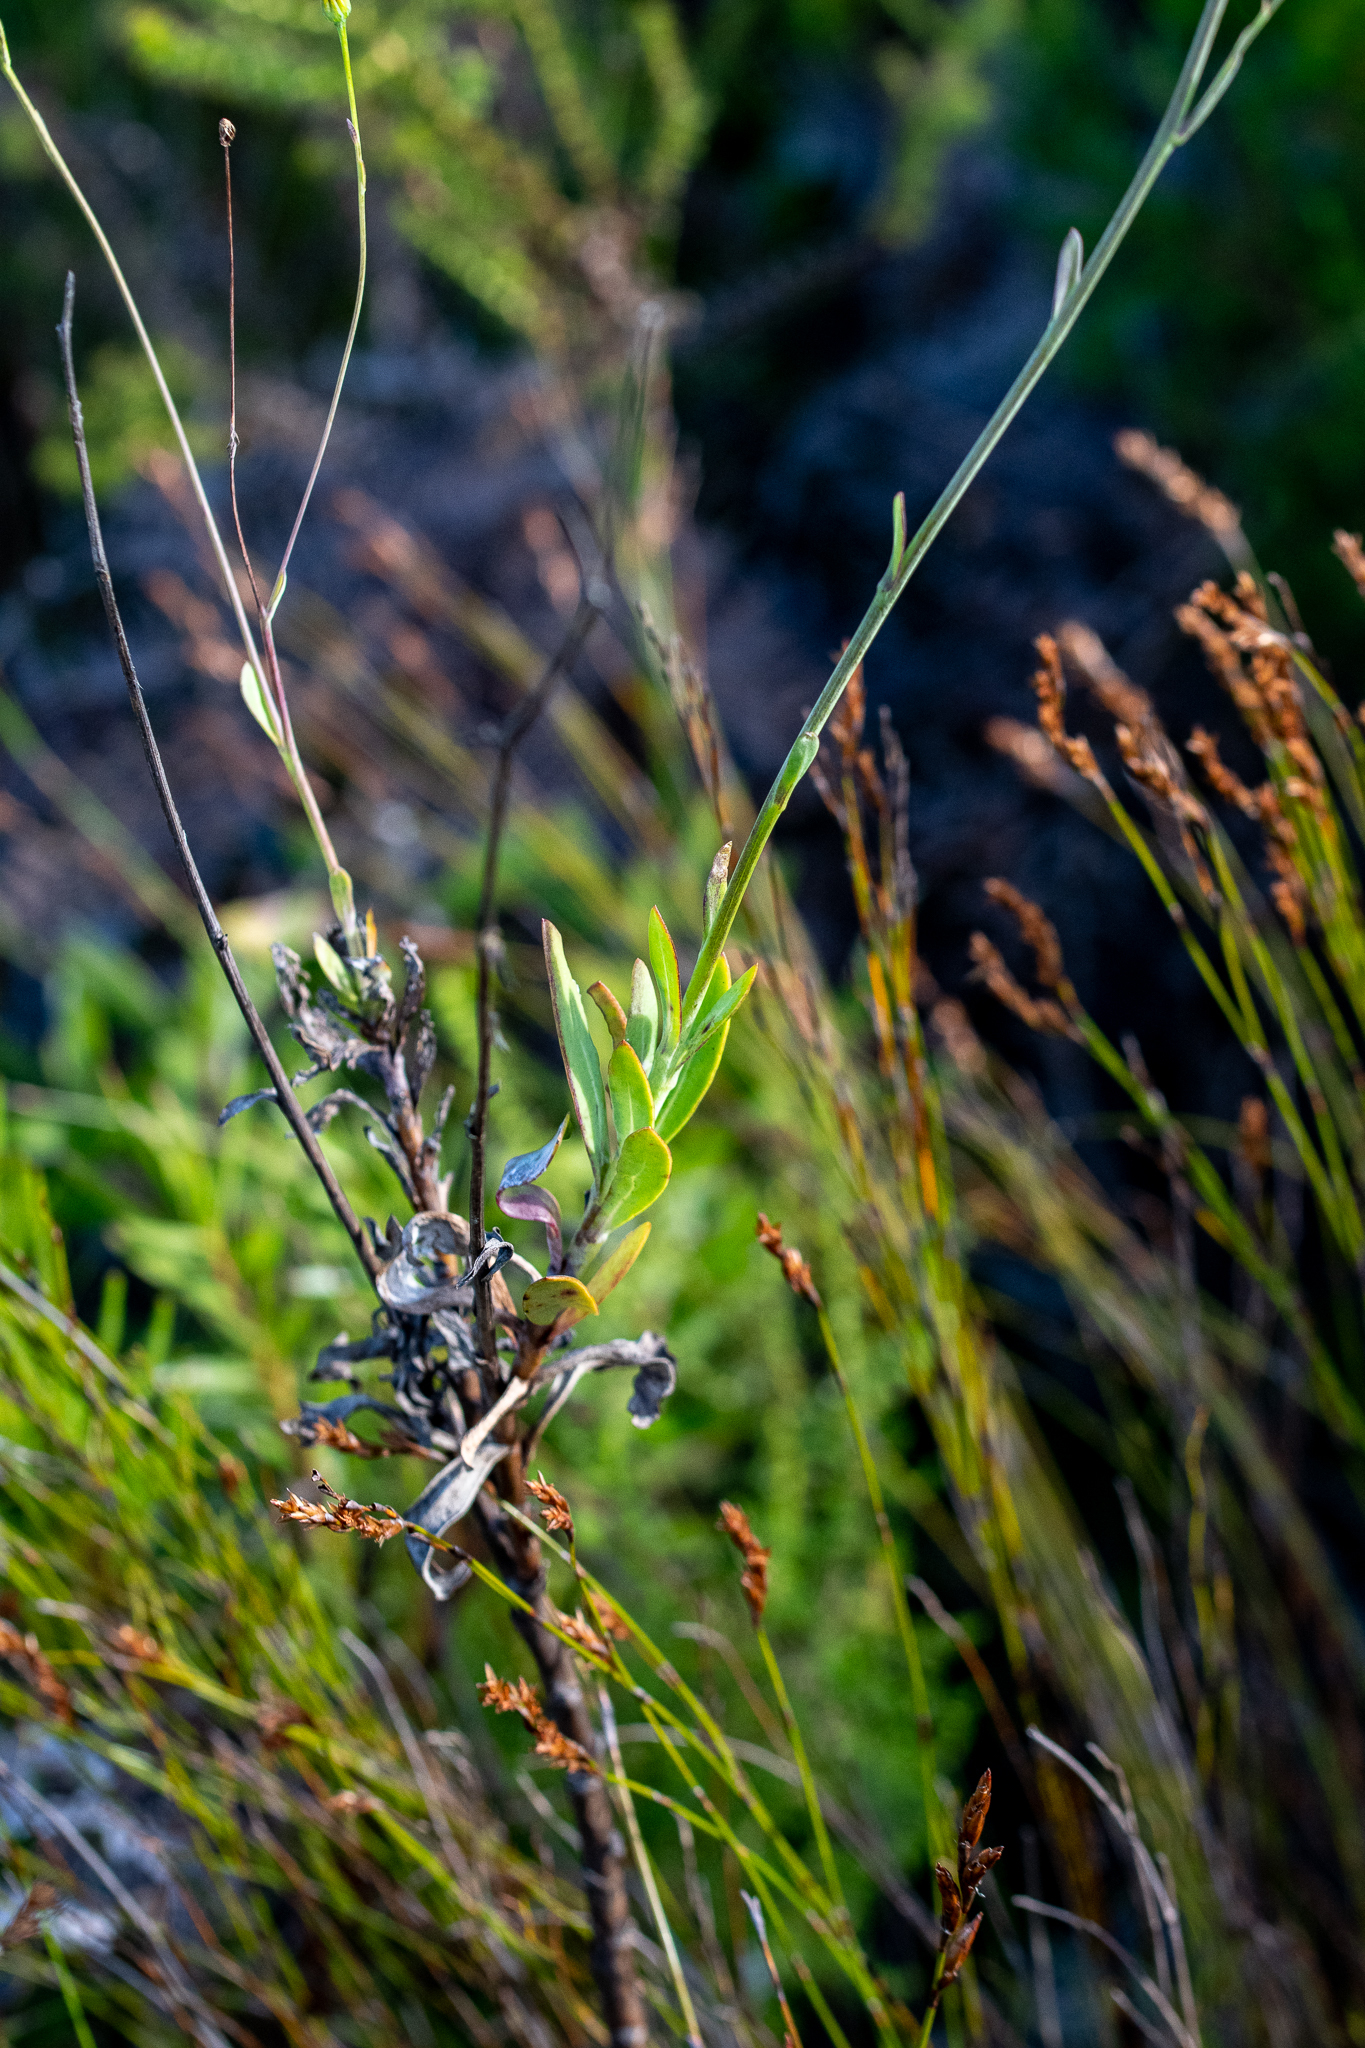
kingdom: Plantae
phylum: Tracheophyta
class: Magnoliopsida
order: Asterales
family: Asteraceae
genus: Othonna
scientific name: Othonna quinquedentata
